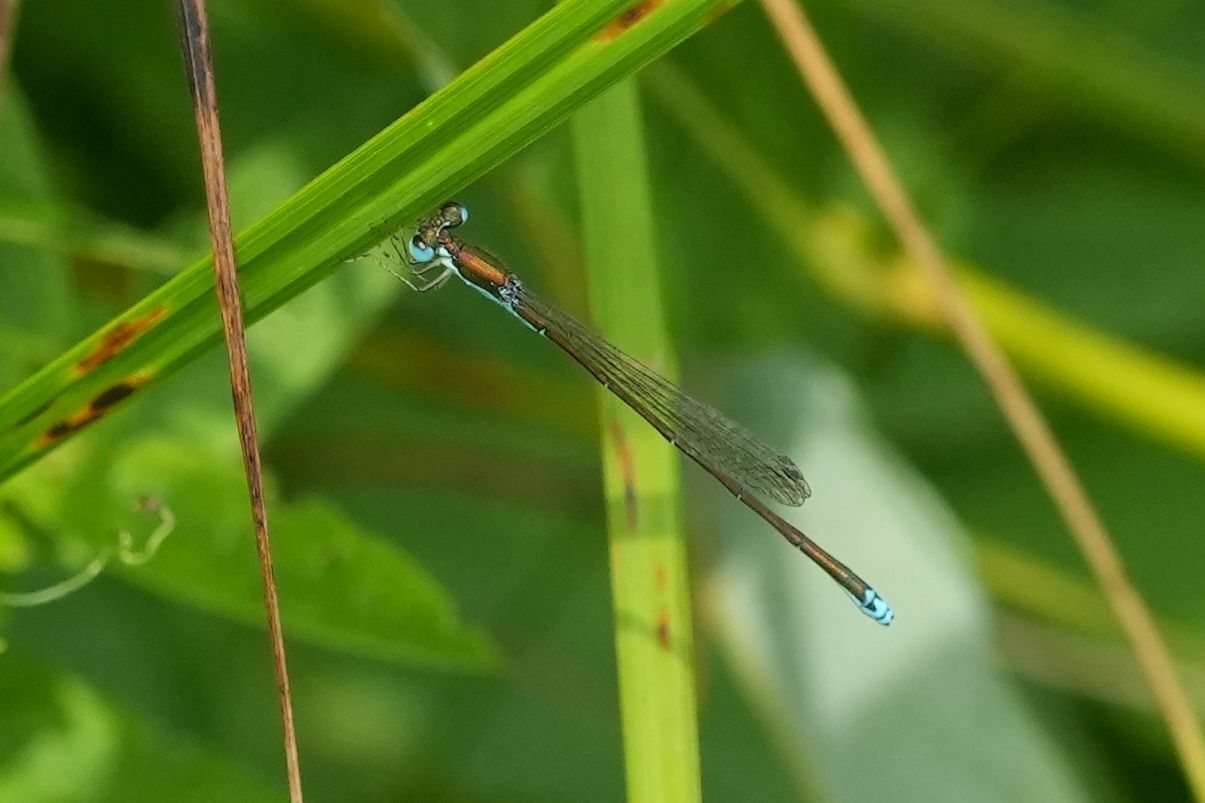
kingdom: Animalia
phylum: Arthropoda
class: Insecta
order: Odonata
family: Coenagrionidae
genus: Nehalennia
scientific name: Nehalennia irene
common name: Sedge sprite
